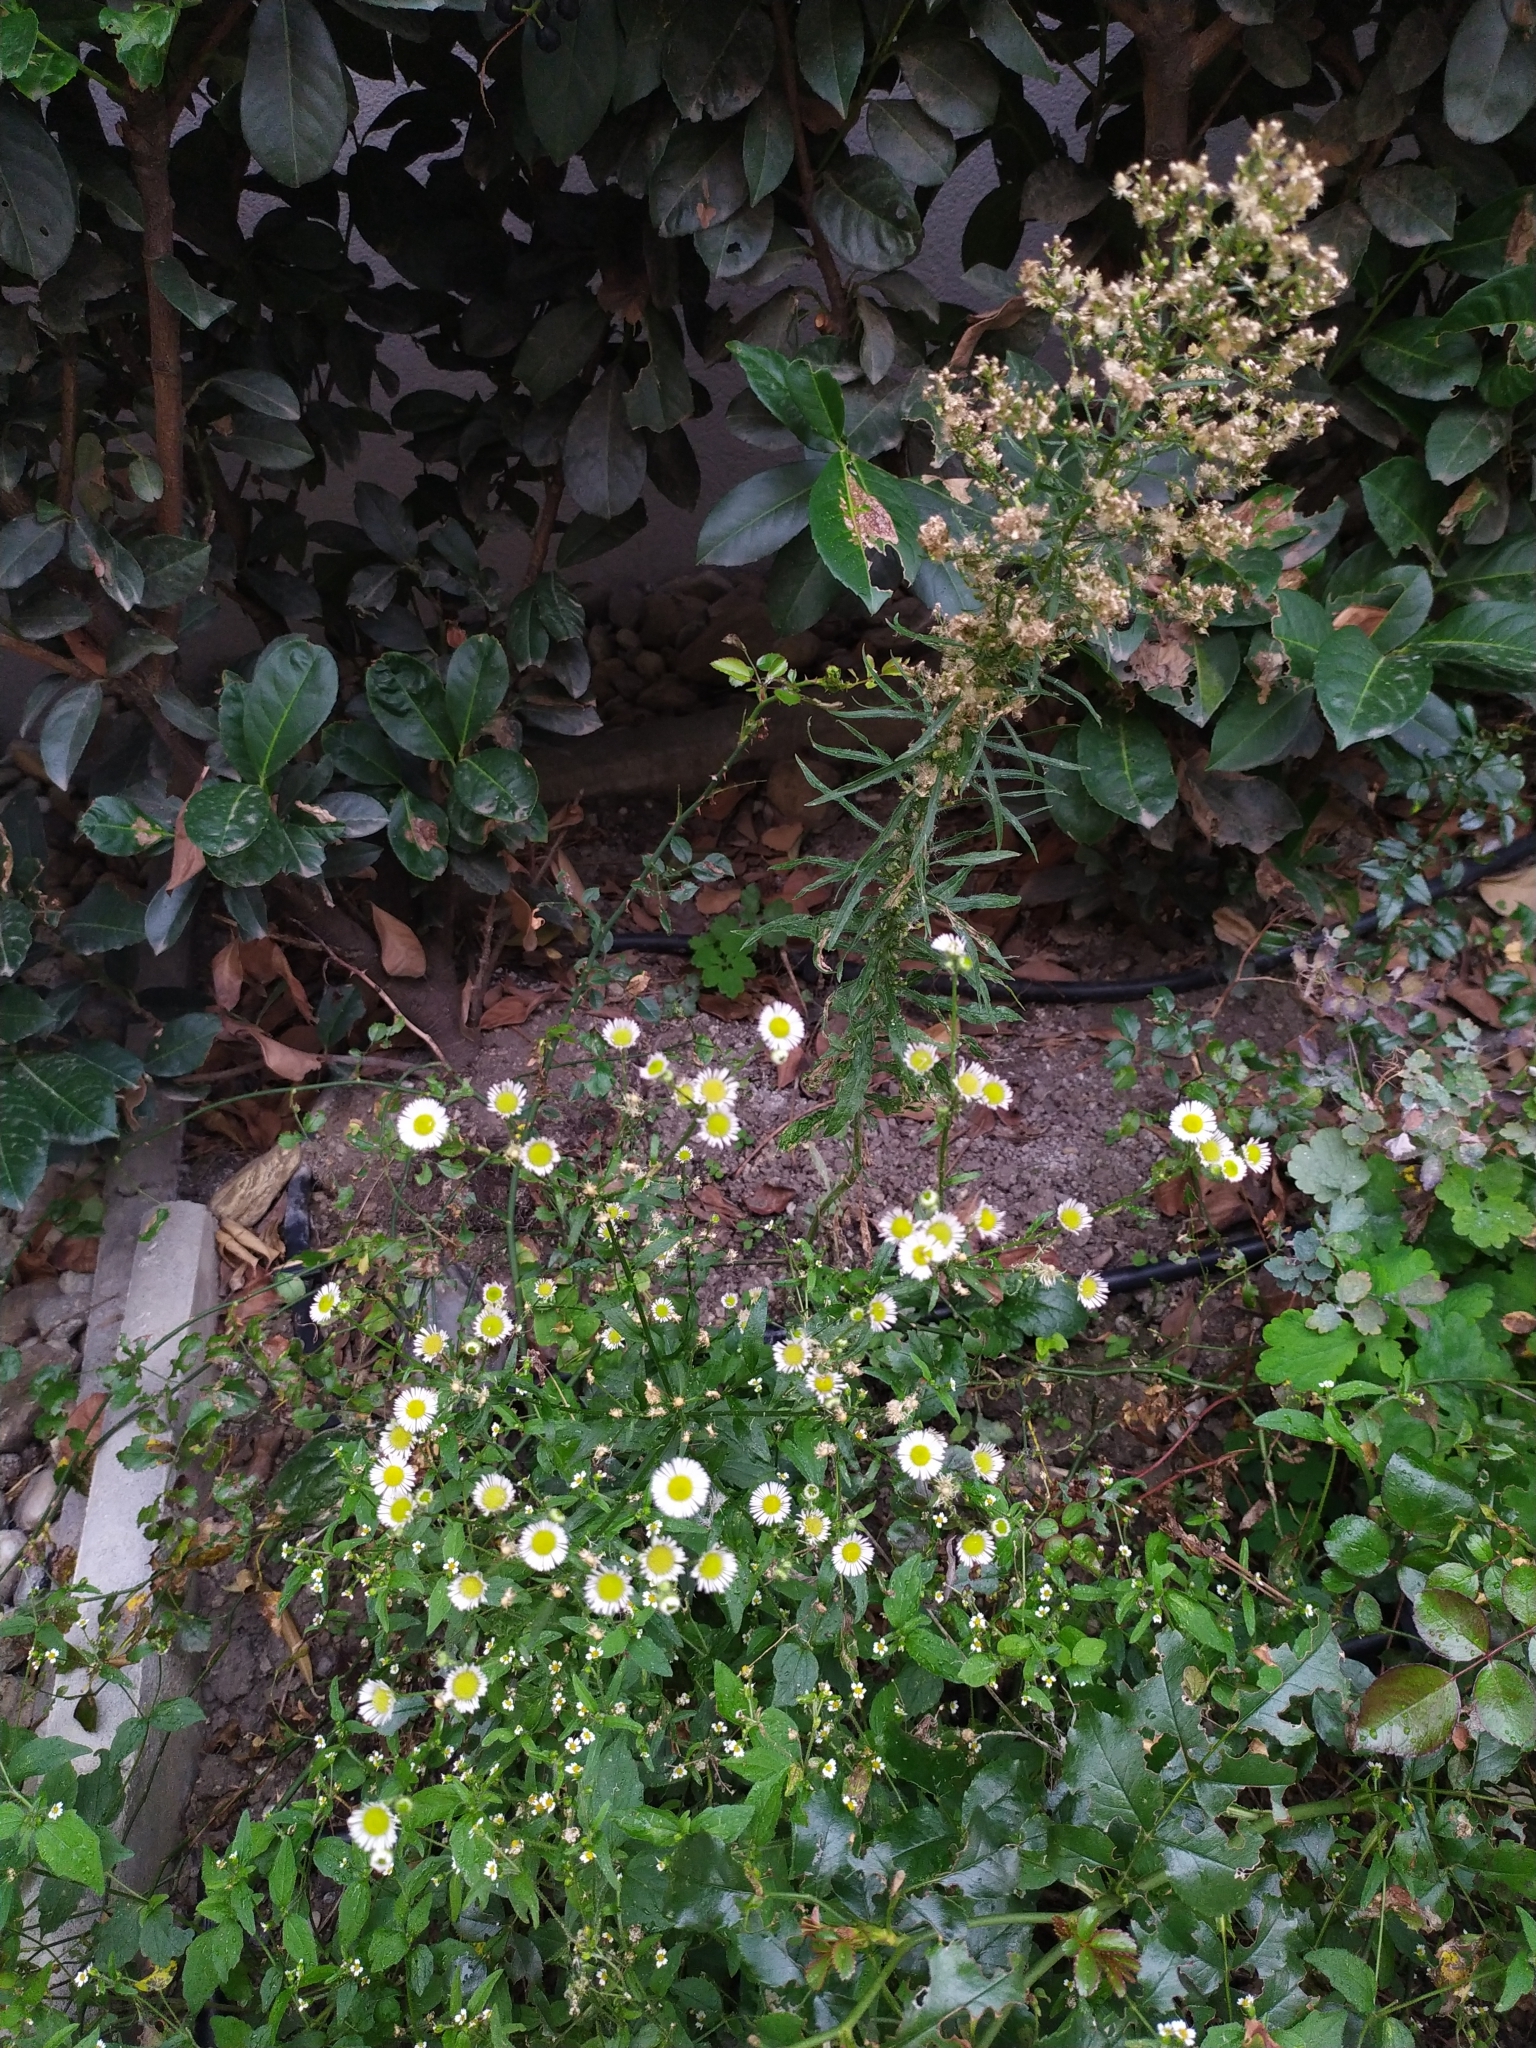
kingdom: Plantae
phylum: Tracheophyta
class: Magnoliopsida
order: Asterales
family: Asteraceae
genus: Erigeron
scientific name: Erigeron canadensis
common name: Canadian fleabane
